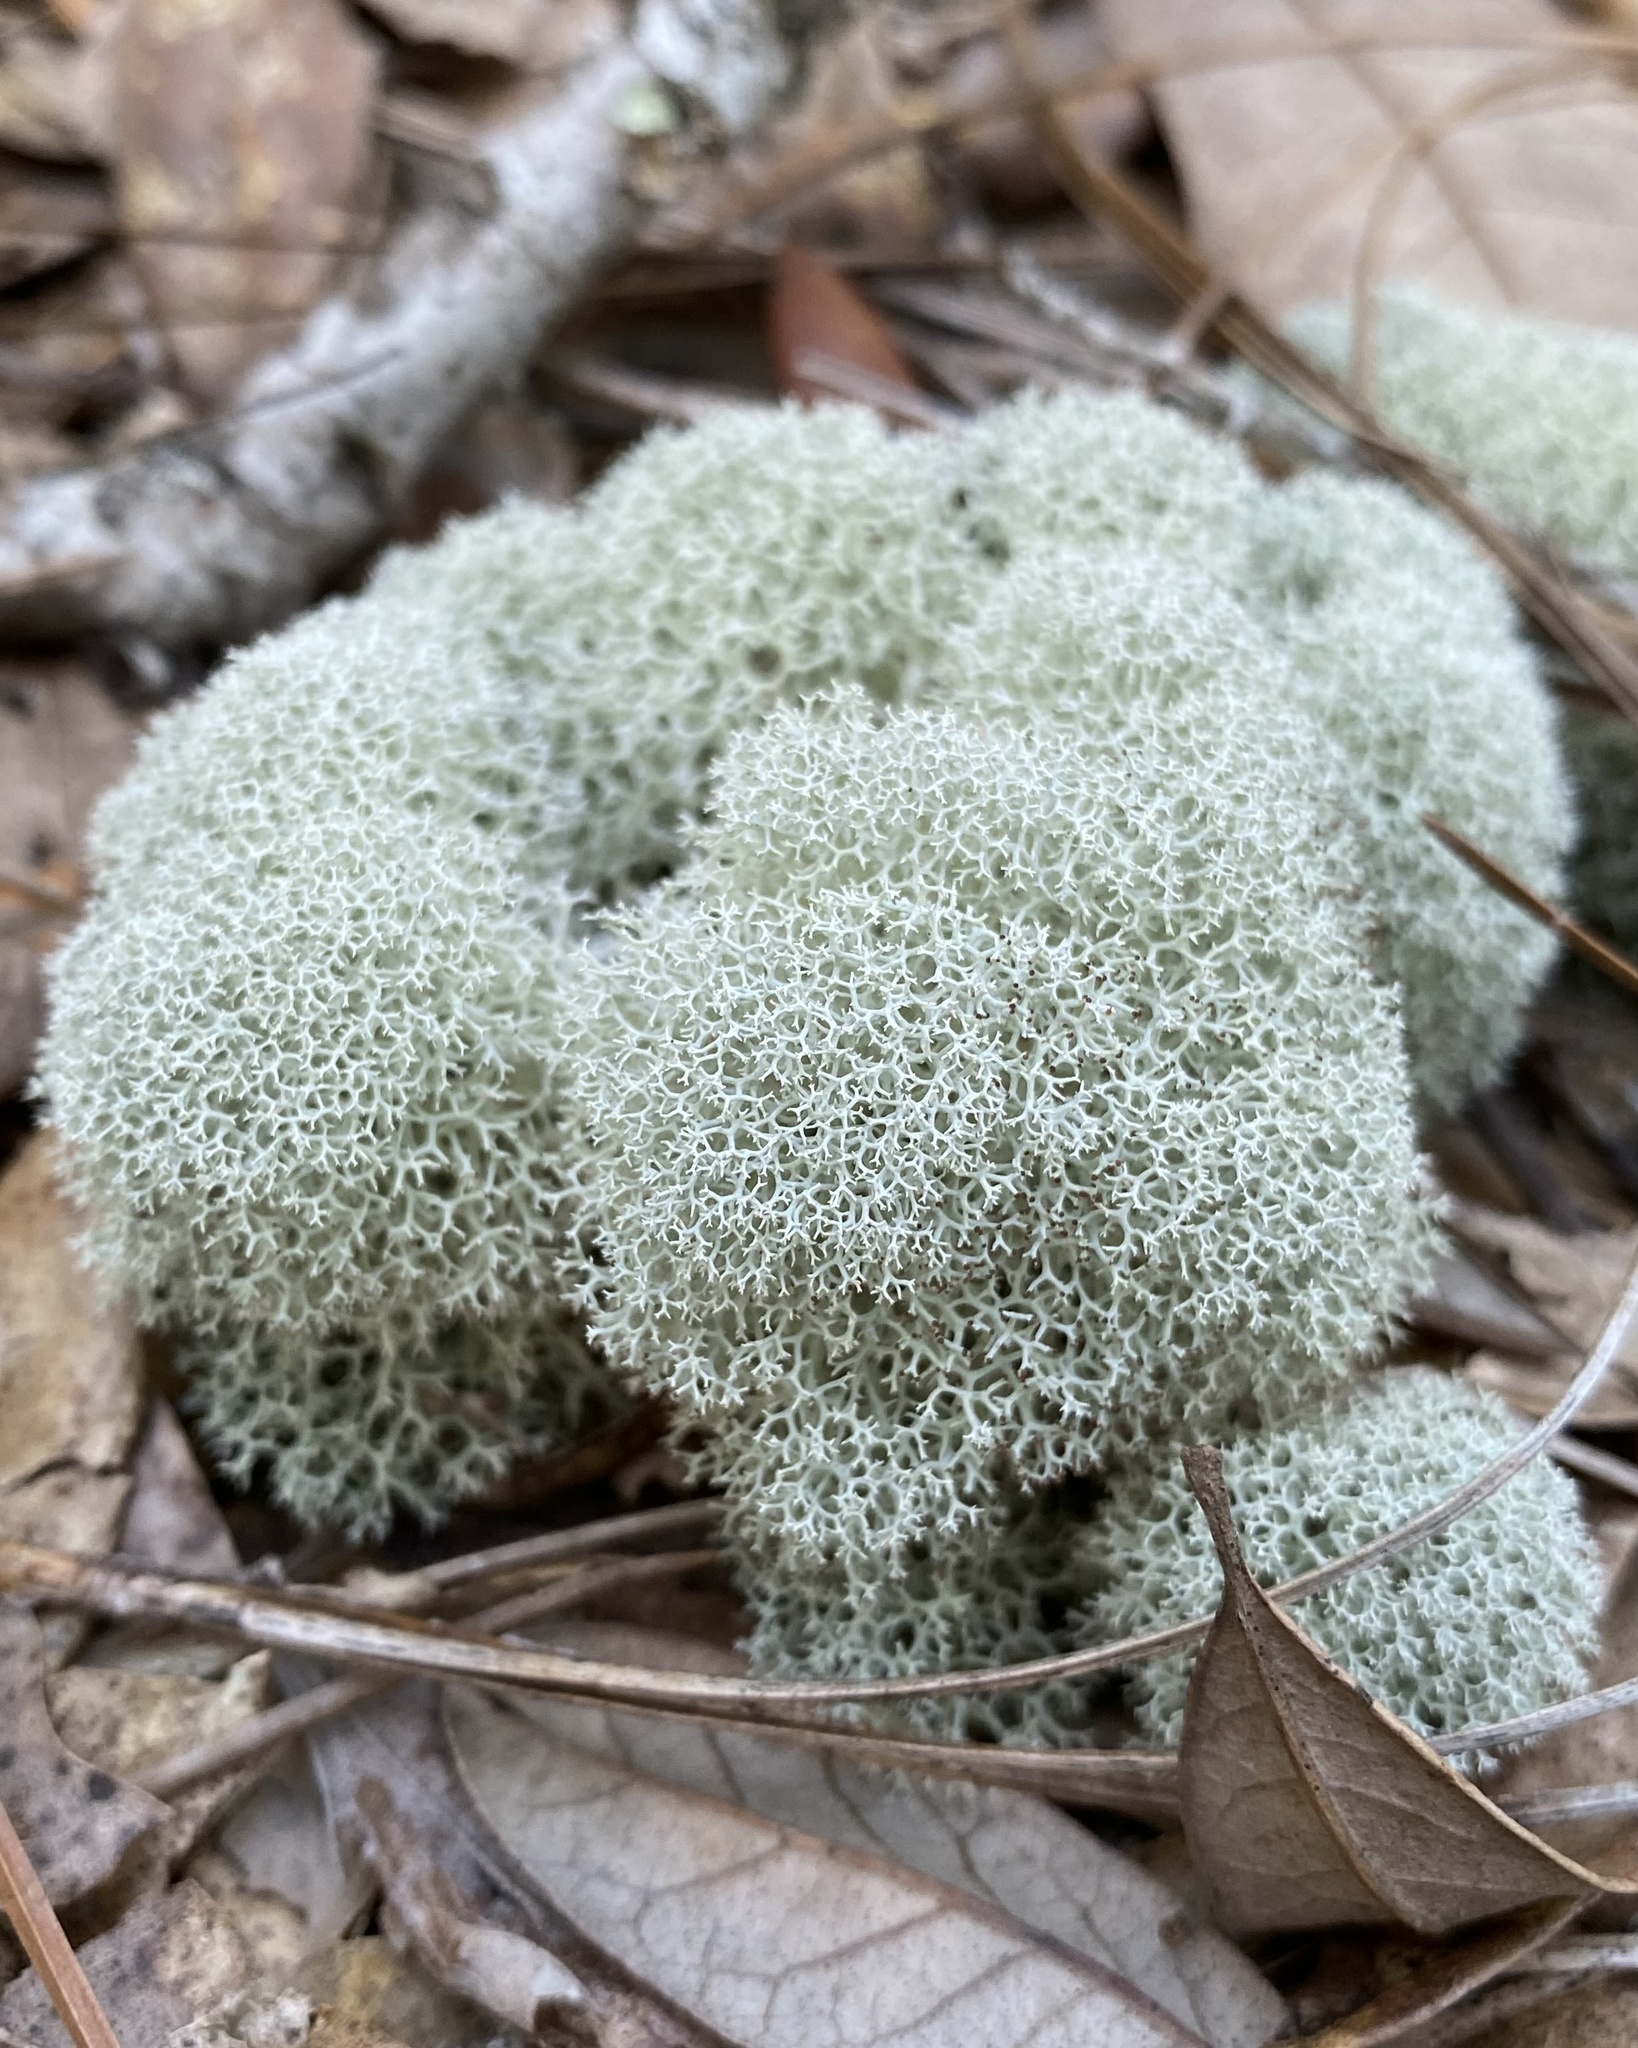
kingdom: Fungi
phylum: Ascomycota
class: Lecanoromycetes
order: Lecanorales
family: Cladoniaceae
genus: Cladonia
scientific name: Cladonia evansii
